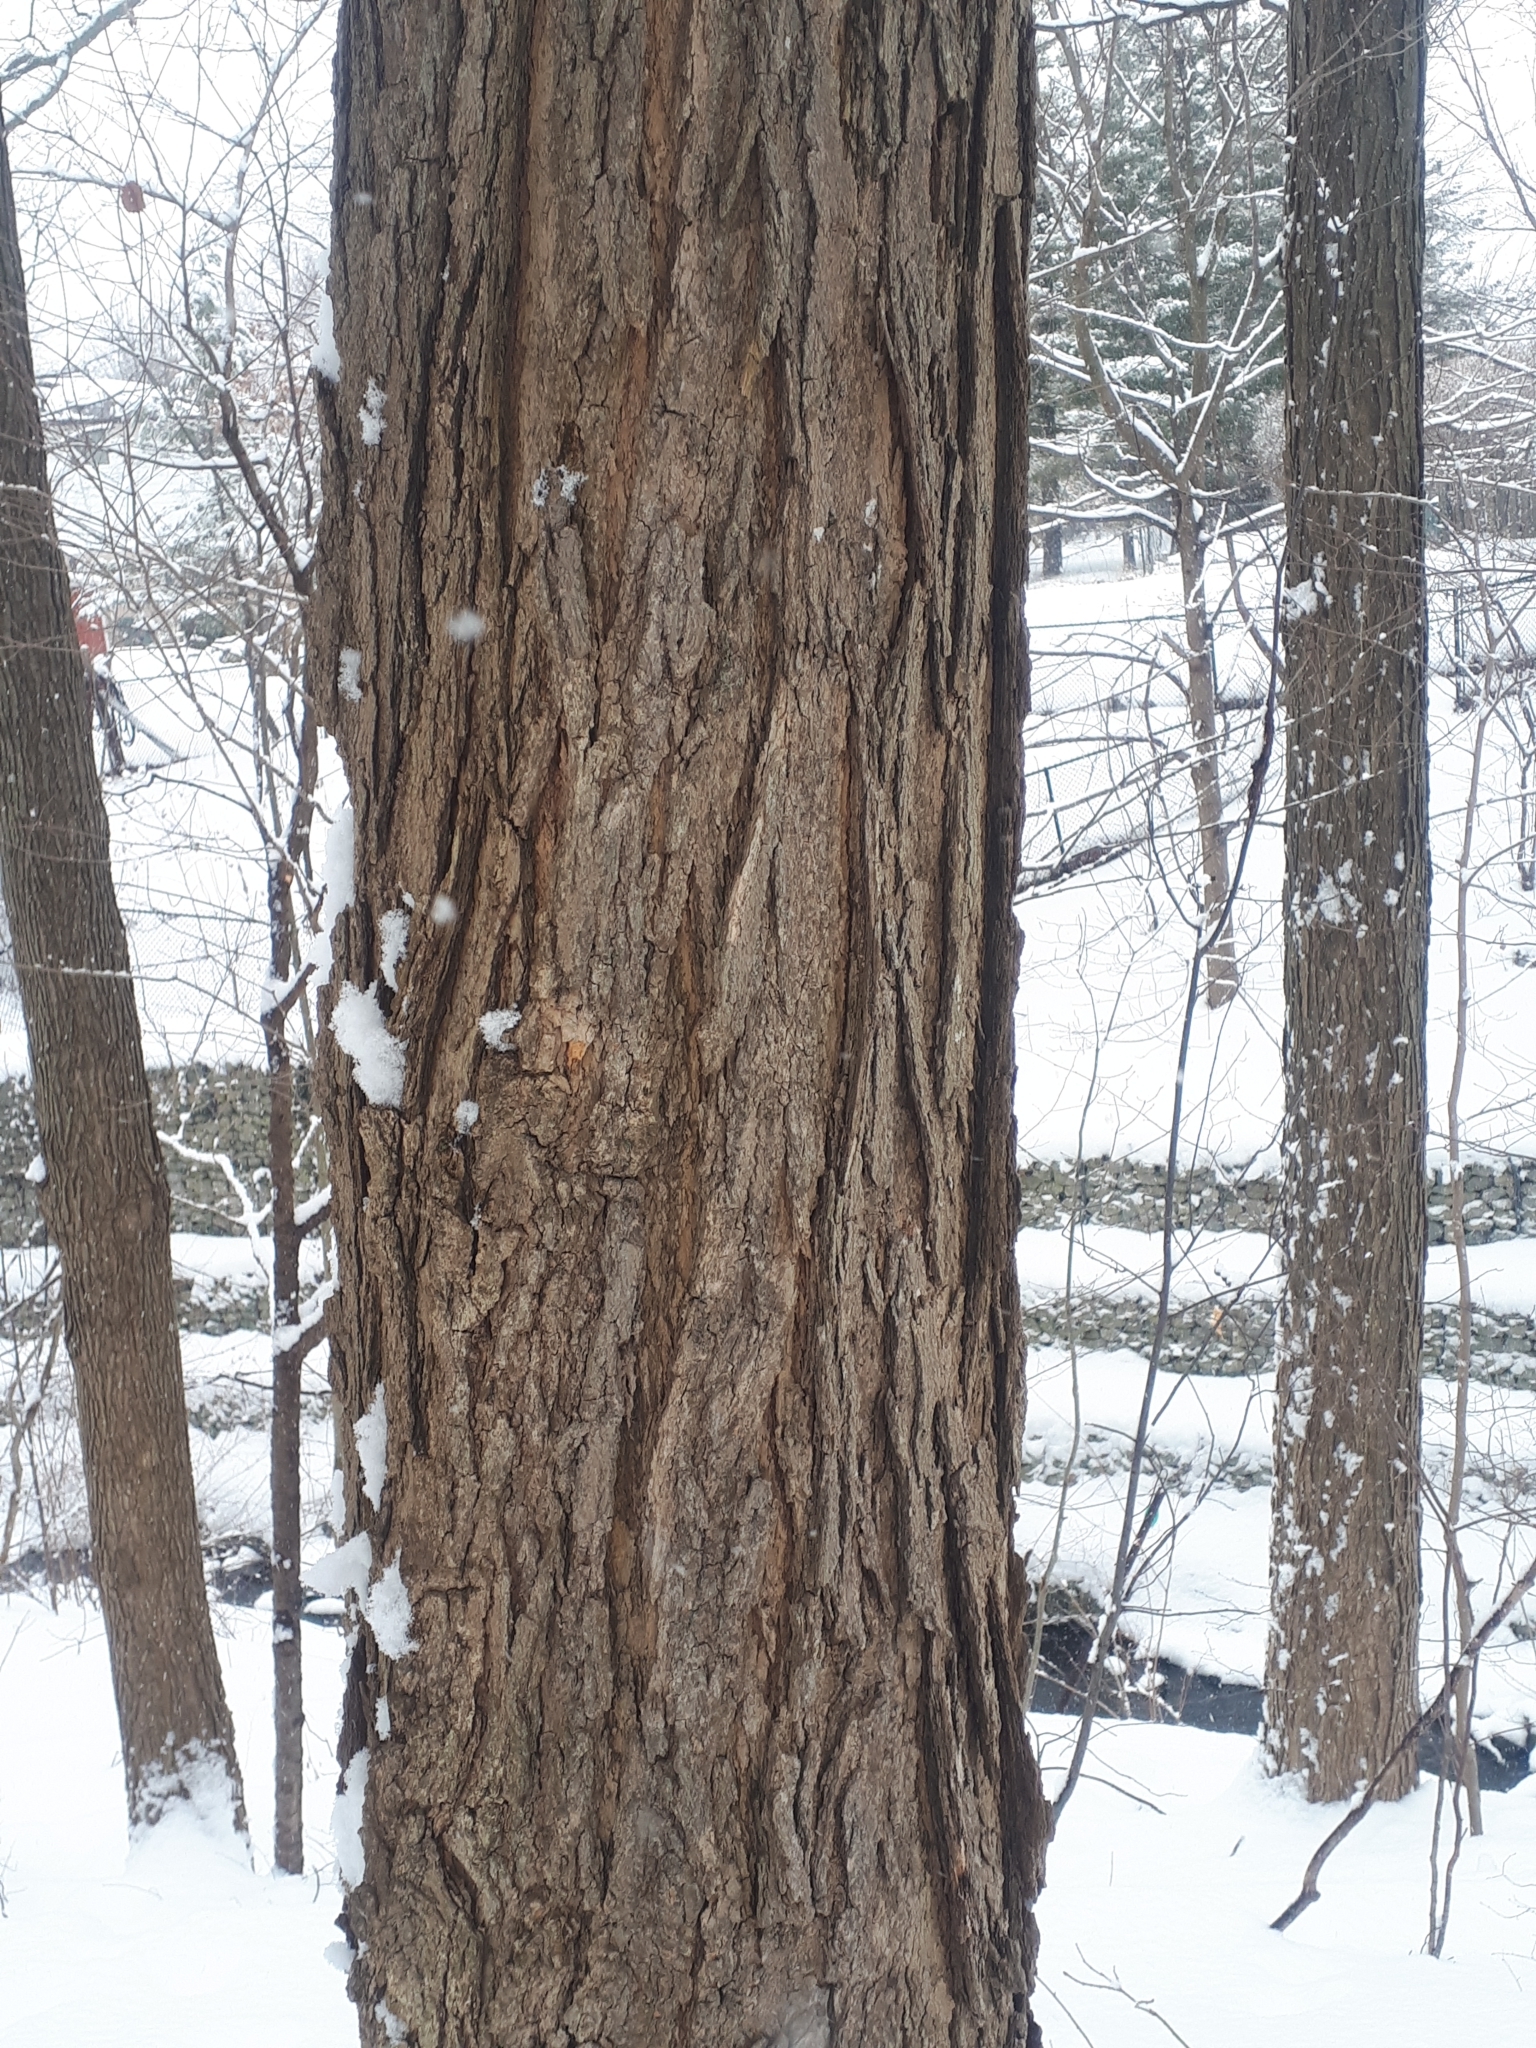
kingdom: Plantae
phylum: Tracheophyta
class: Magnoliopsida
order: Sapindales
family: Sapindaceae
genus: Acer
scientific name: Acer saccharum
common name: Sugar maple
